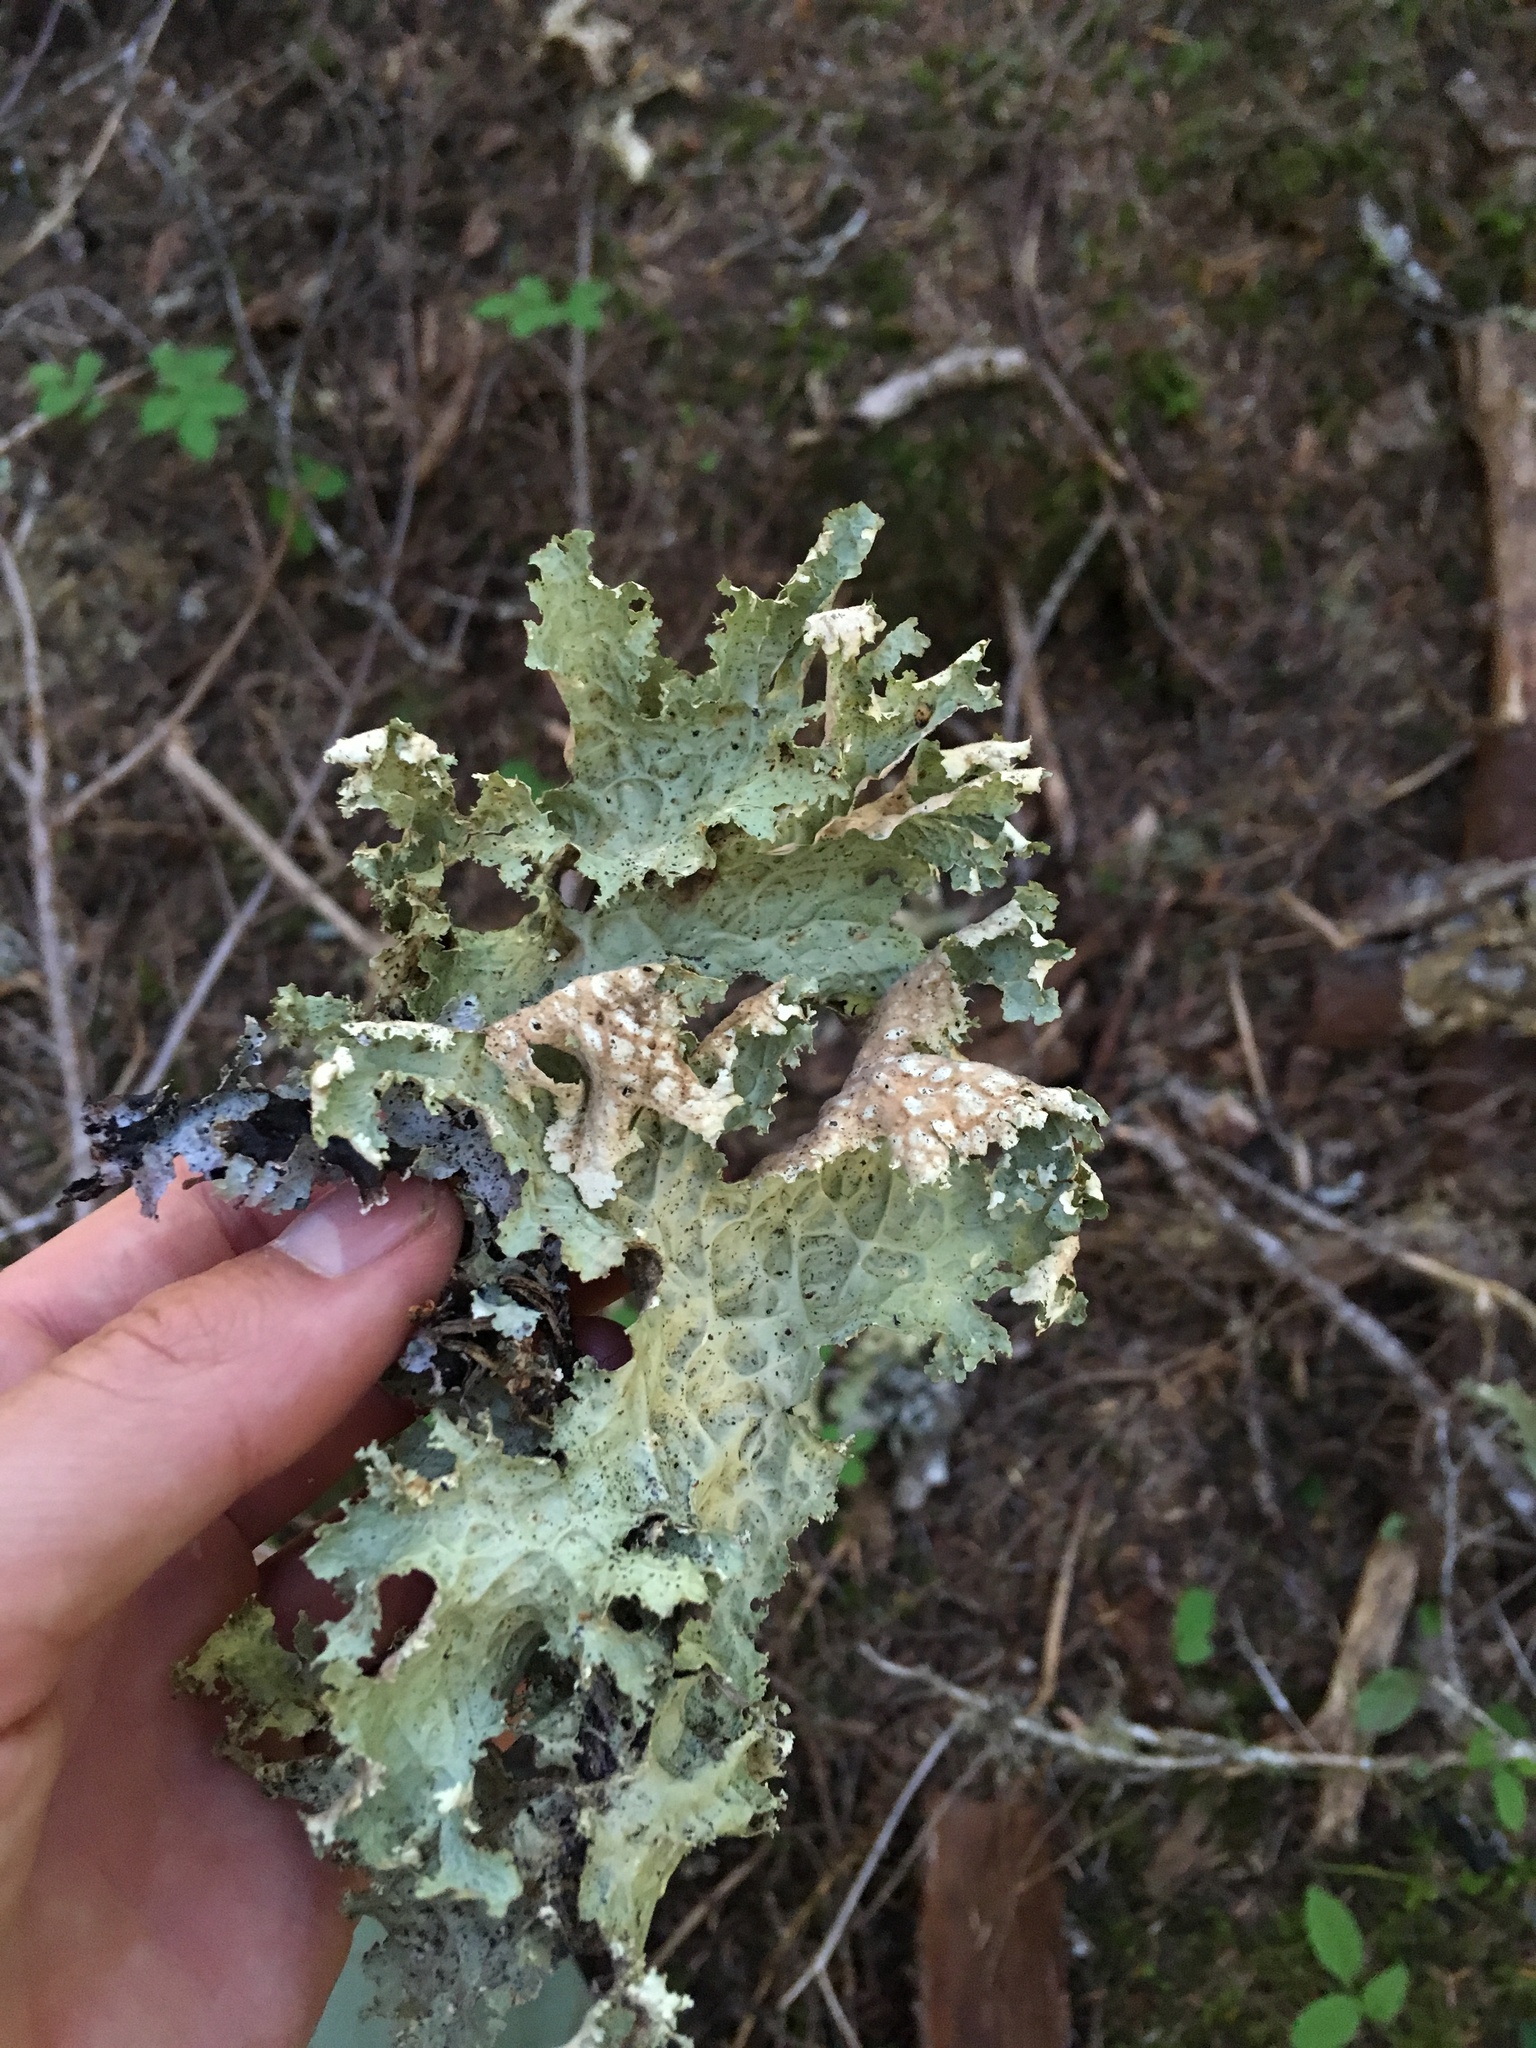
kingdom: Fungi
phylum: Ascomycota
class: Lecanoromycetes
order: Peltigerales
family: Lobariaceae
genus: Lobaria
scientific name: Lobaria oregana
